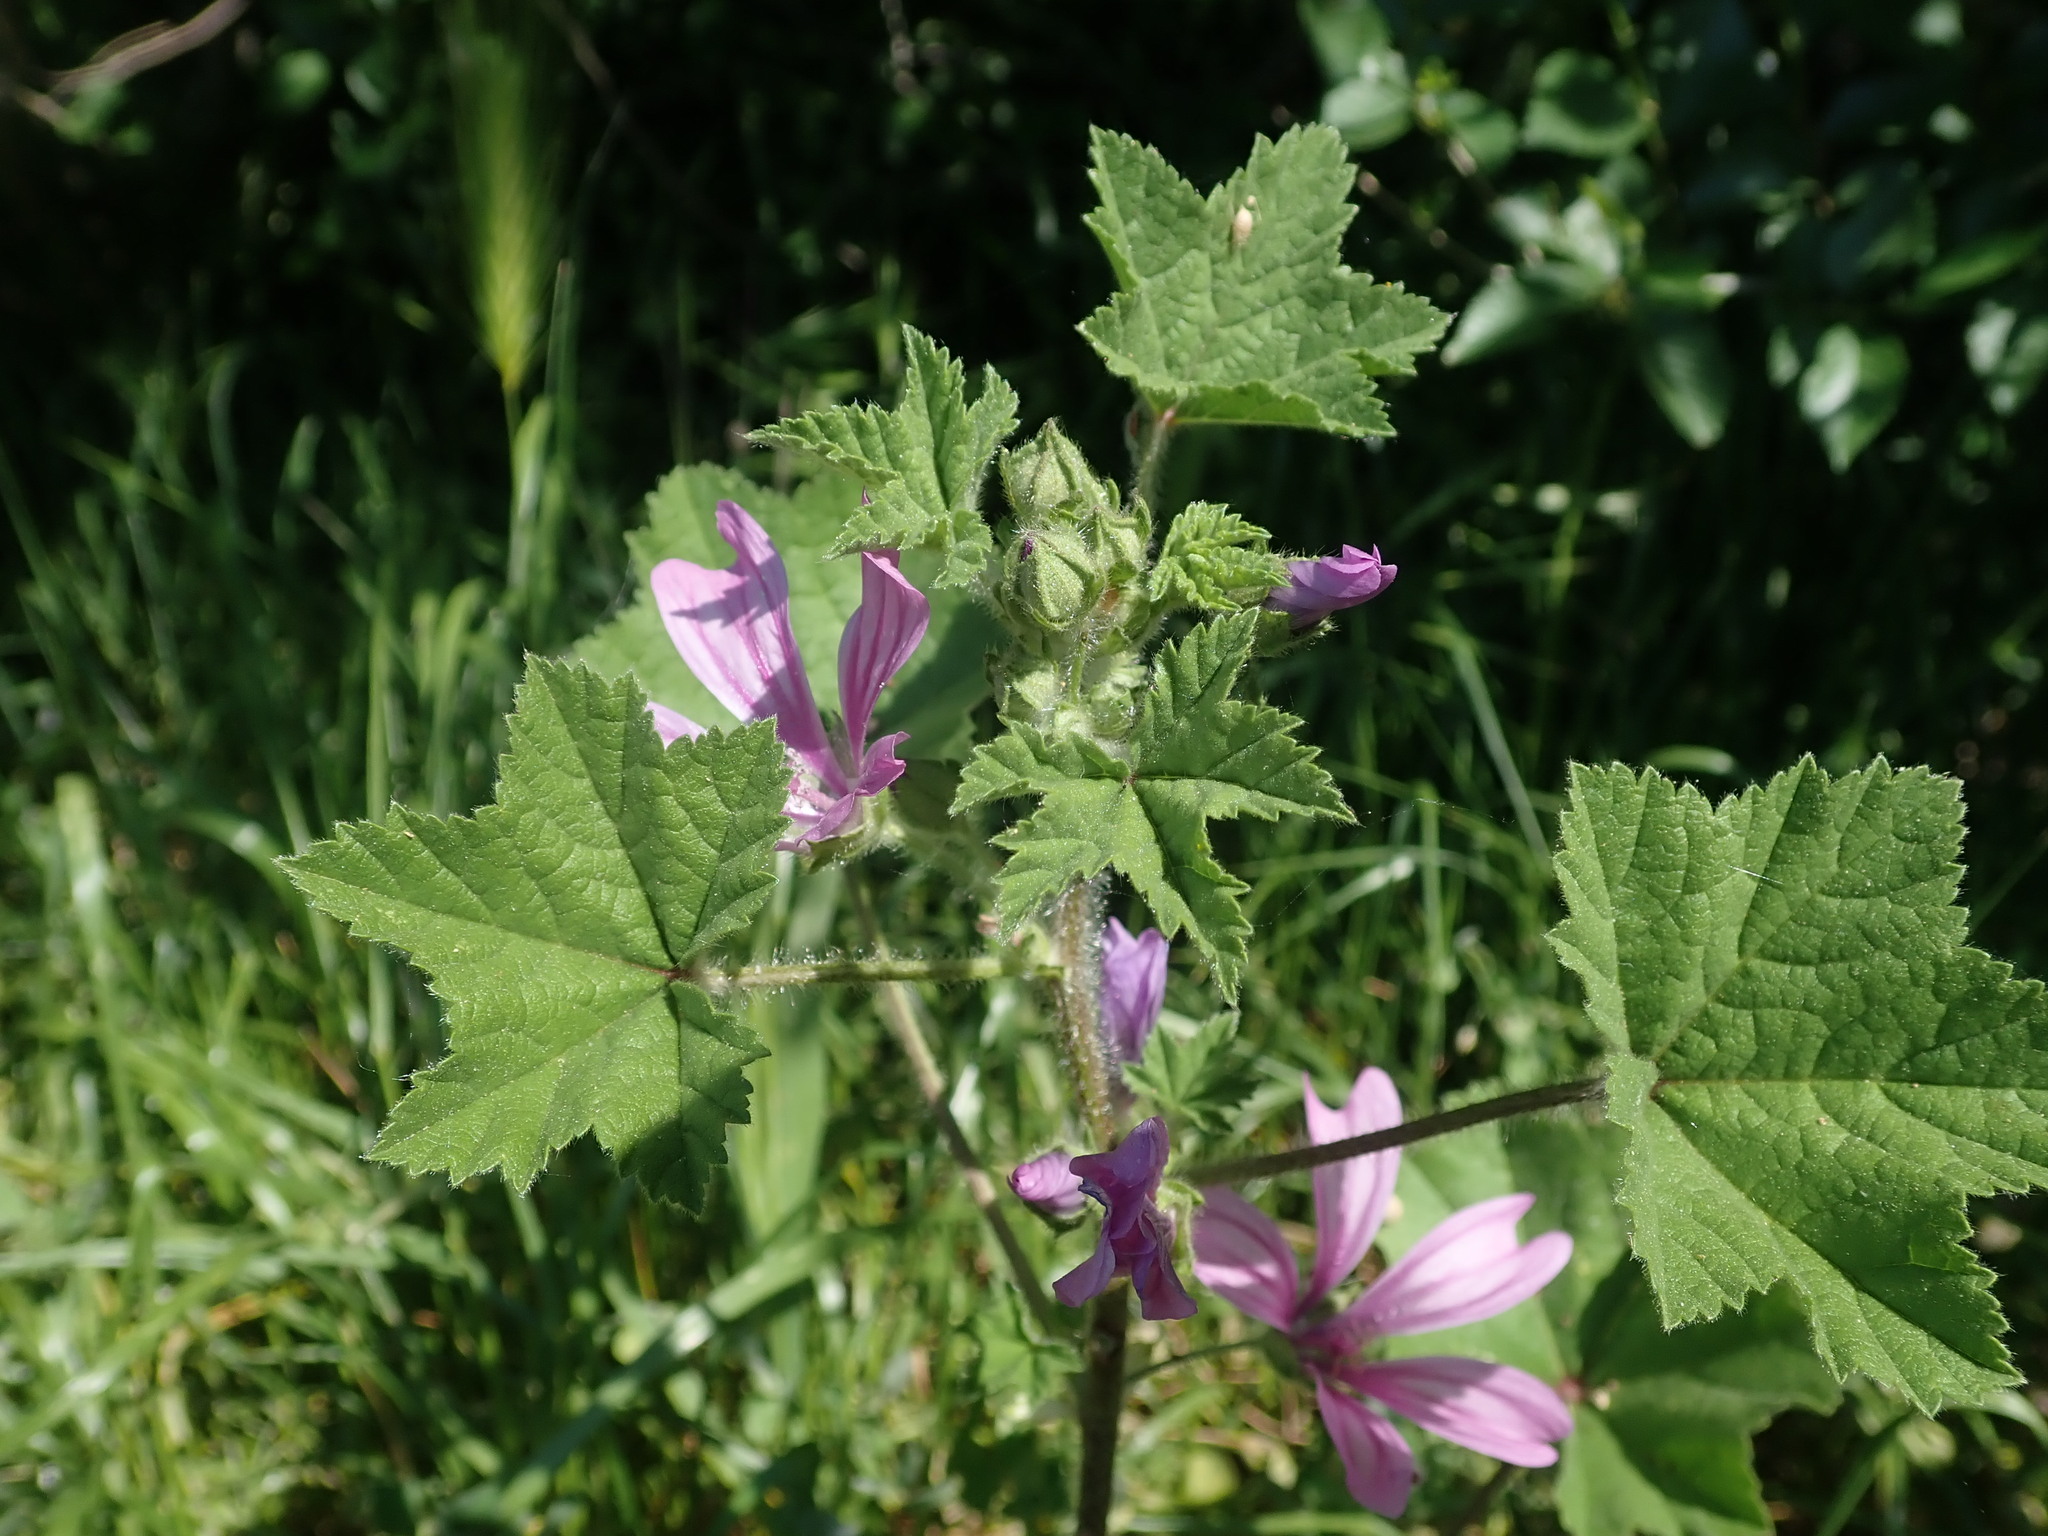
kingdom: Plantae
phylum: Tracheophyta
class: Magnoliopsida
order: Malvales
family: Malvaceae
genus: Malva
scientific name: Malva sylvestris
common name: Common mallow
